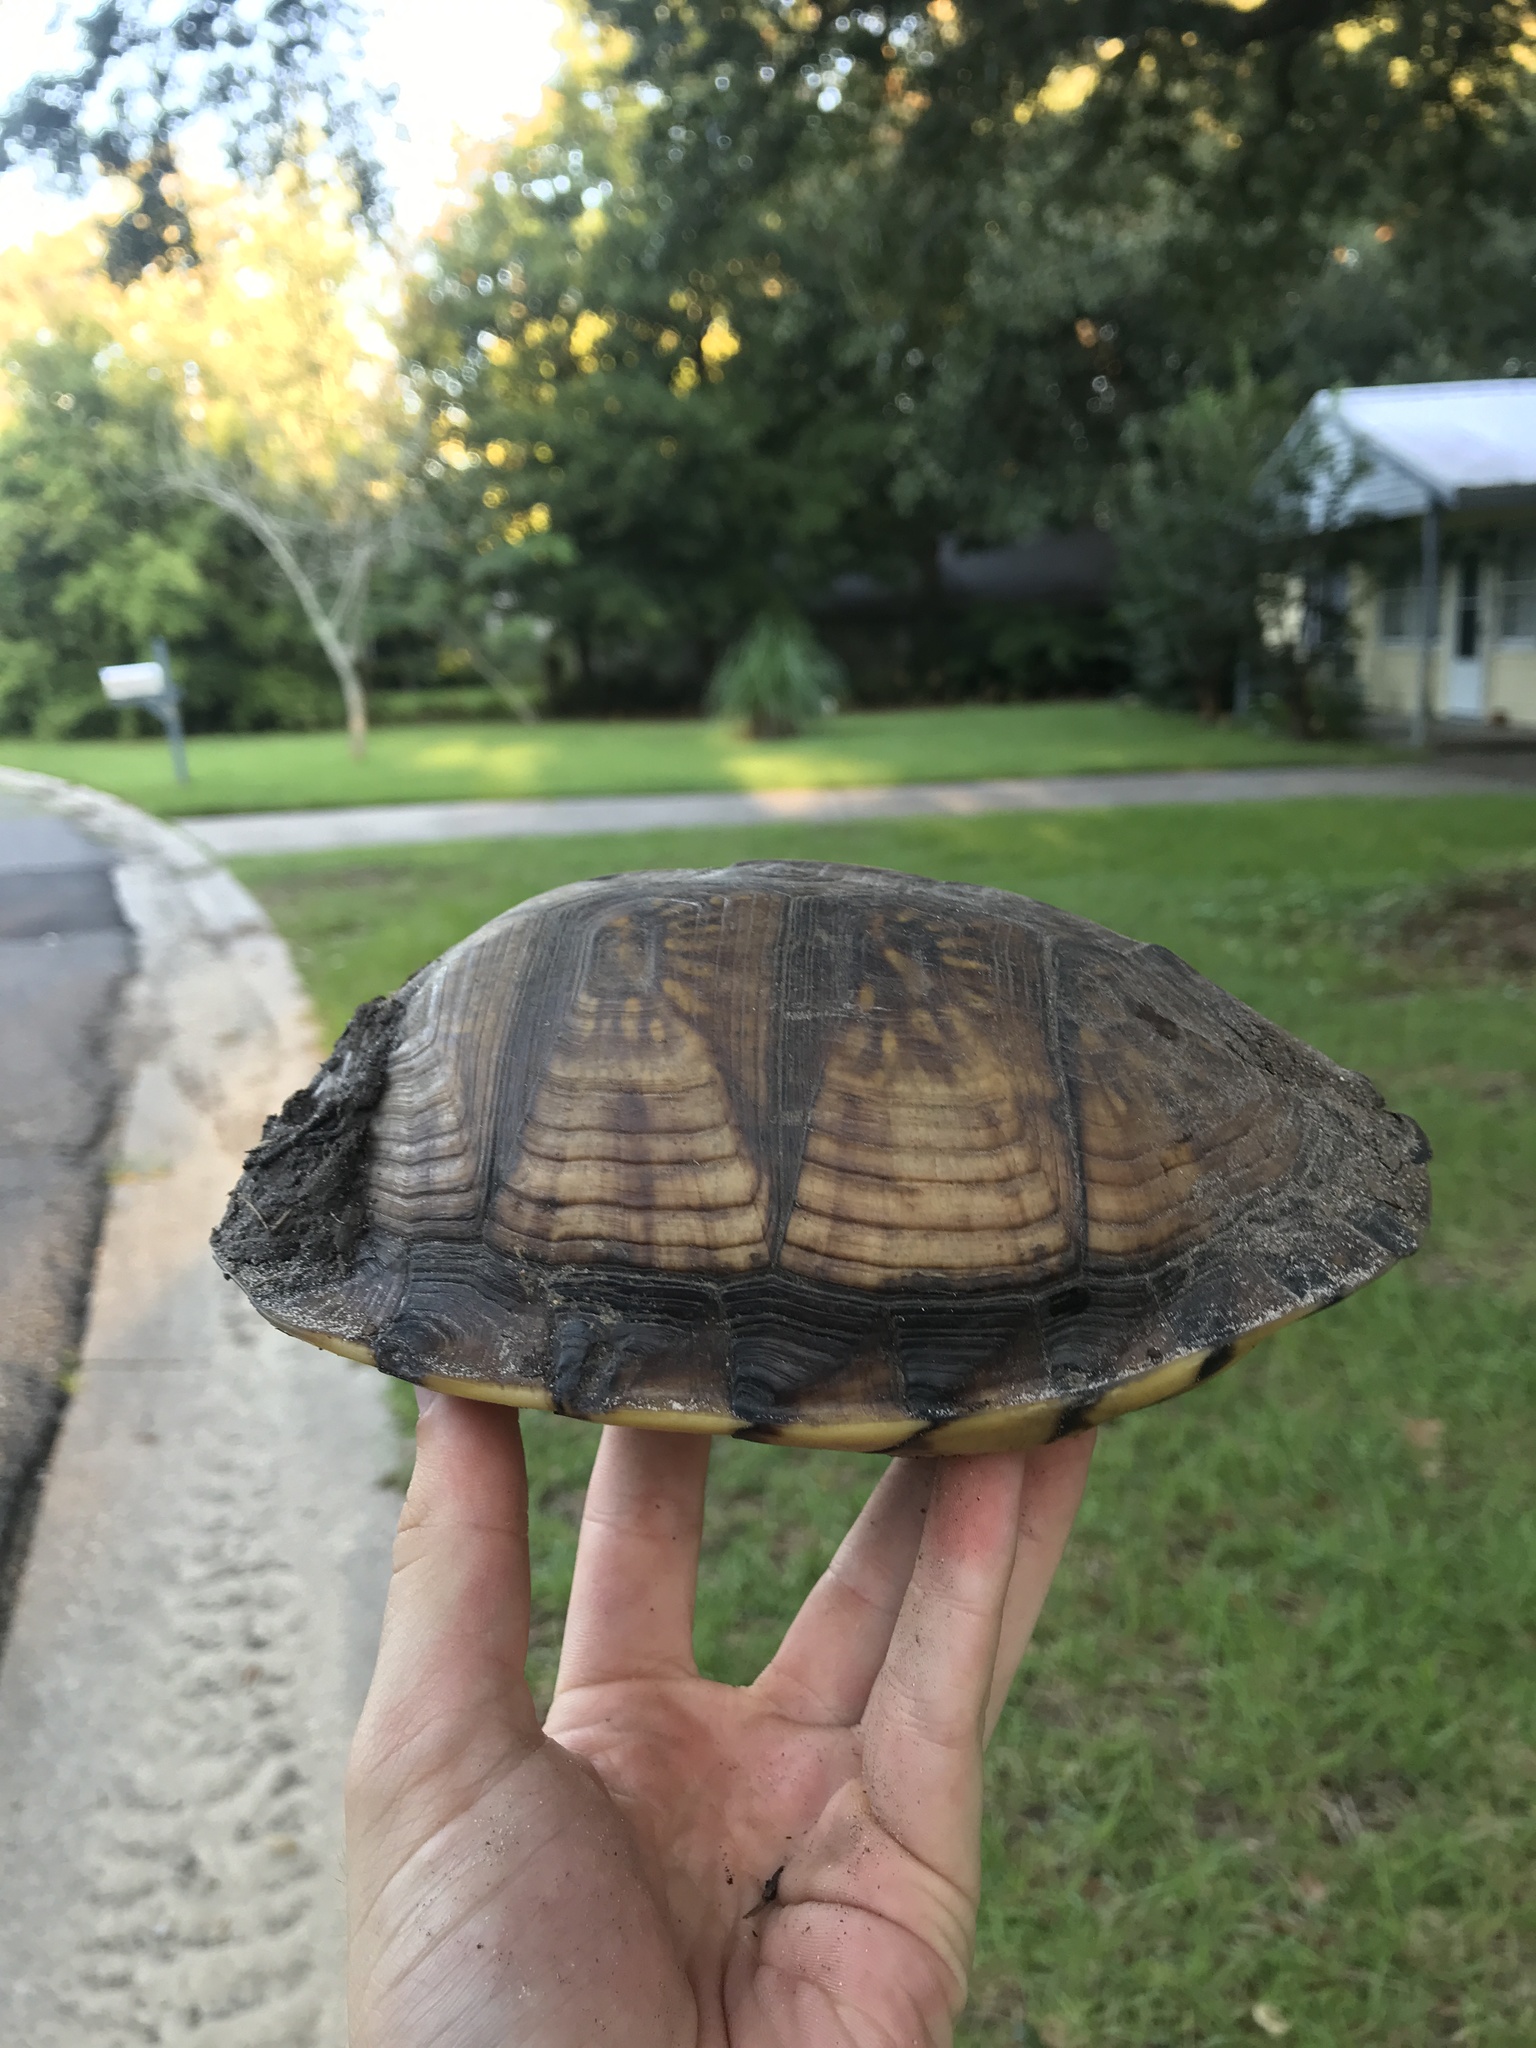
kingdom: Animalia
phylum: Chordata
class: Testudines
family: Emydidae
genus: Terrapene
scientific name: Terrapene carolina
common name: Common box turtle
